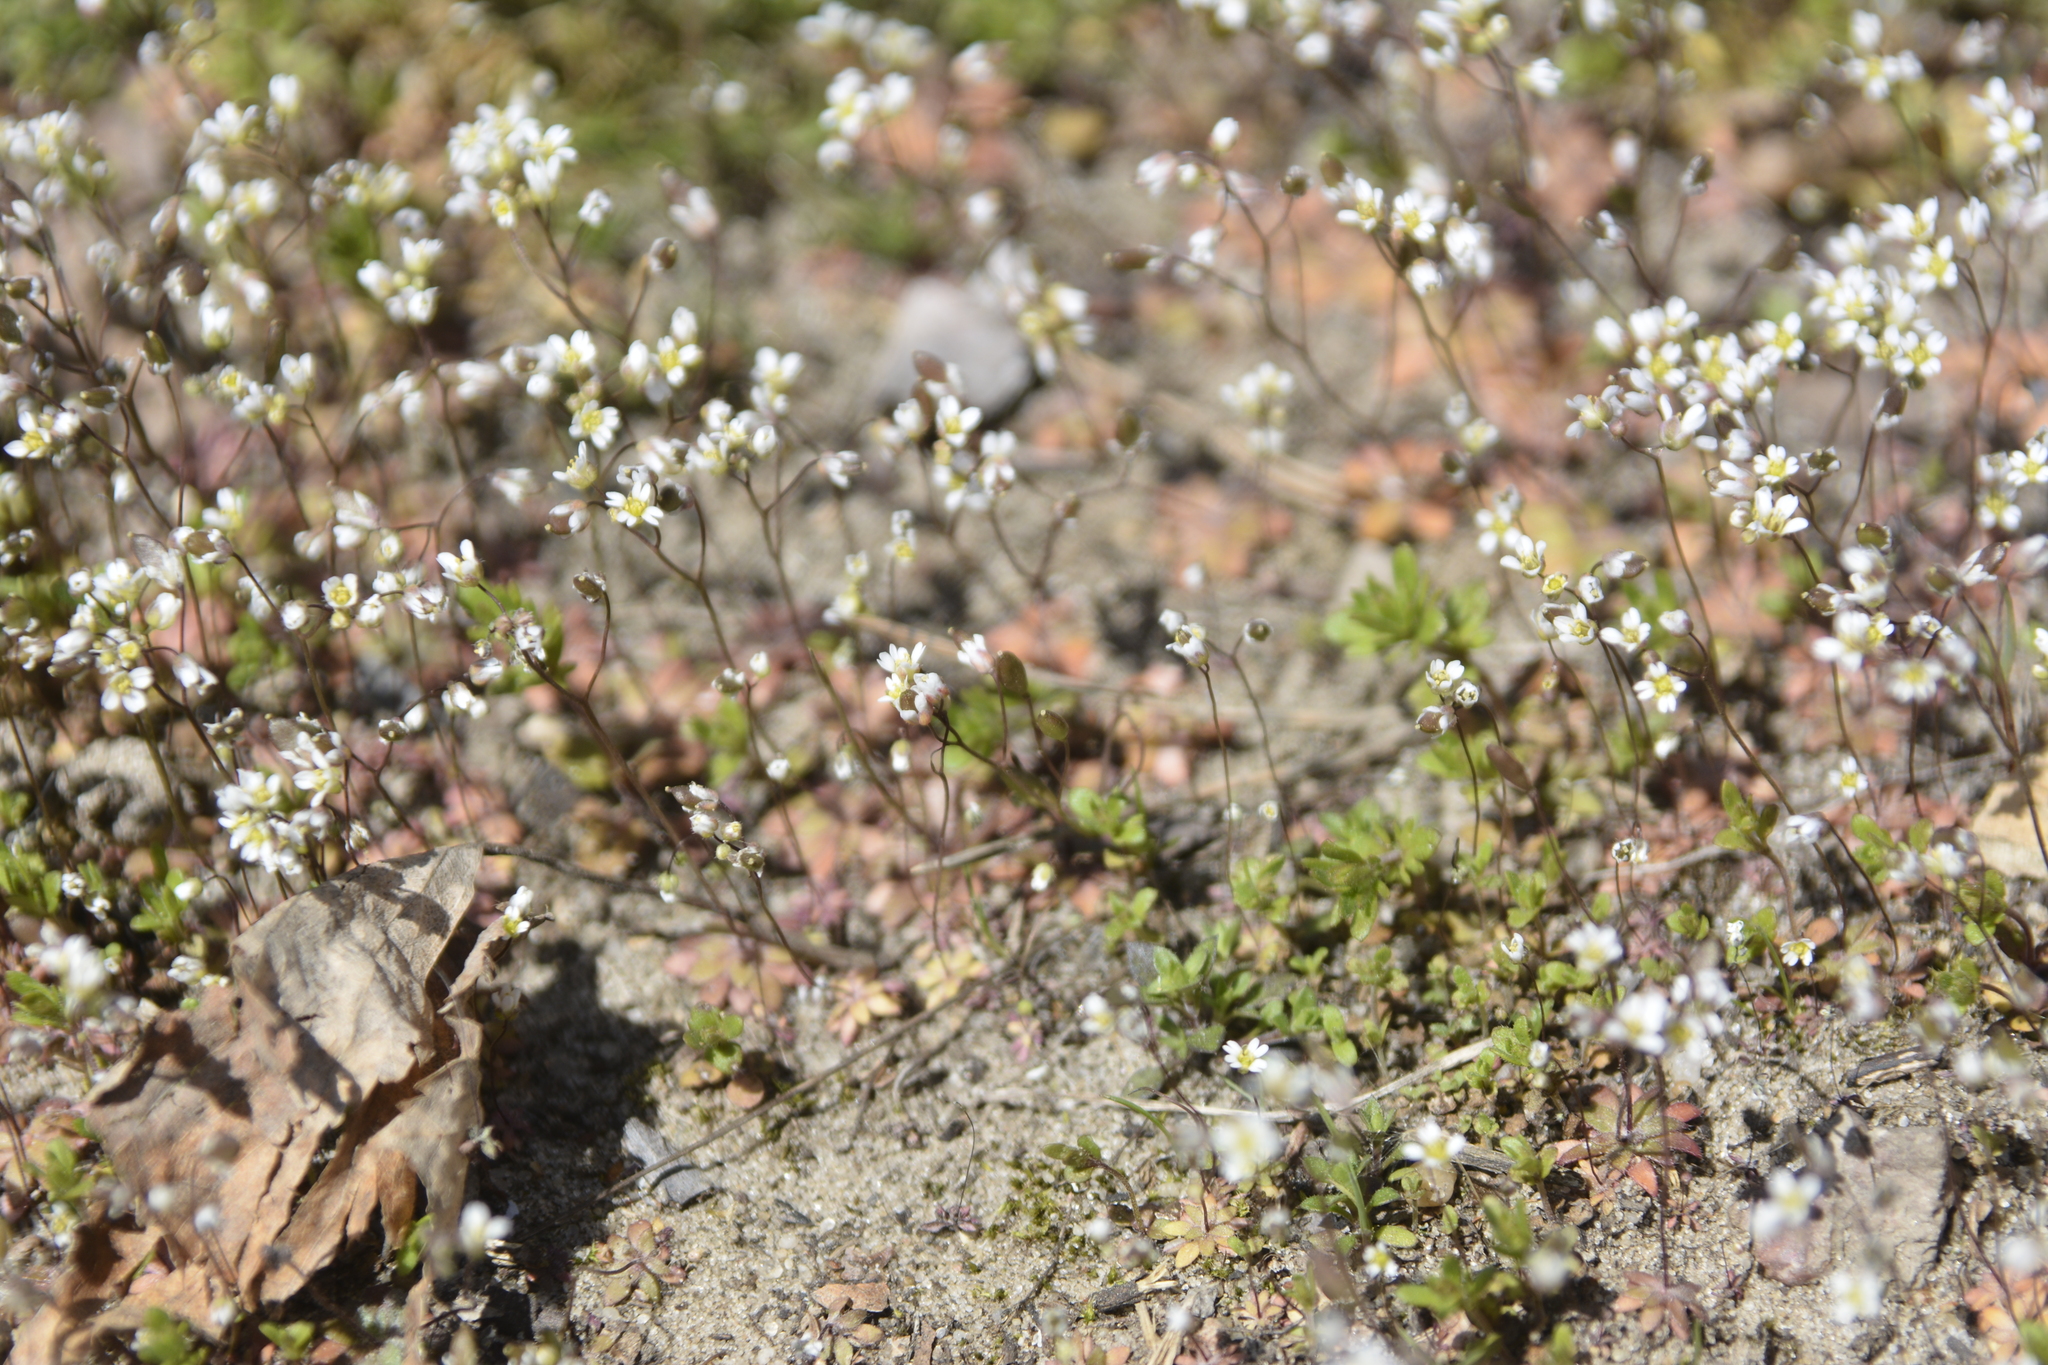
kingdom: Plantae
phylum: Tracheophyta
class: Magnoliopsida
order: Brassicales
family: Brassicaceae
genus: Draba
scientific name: Draba verna
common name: Spring draba
